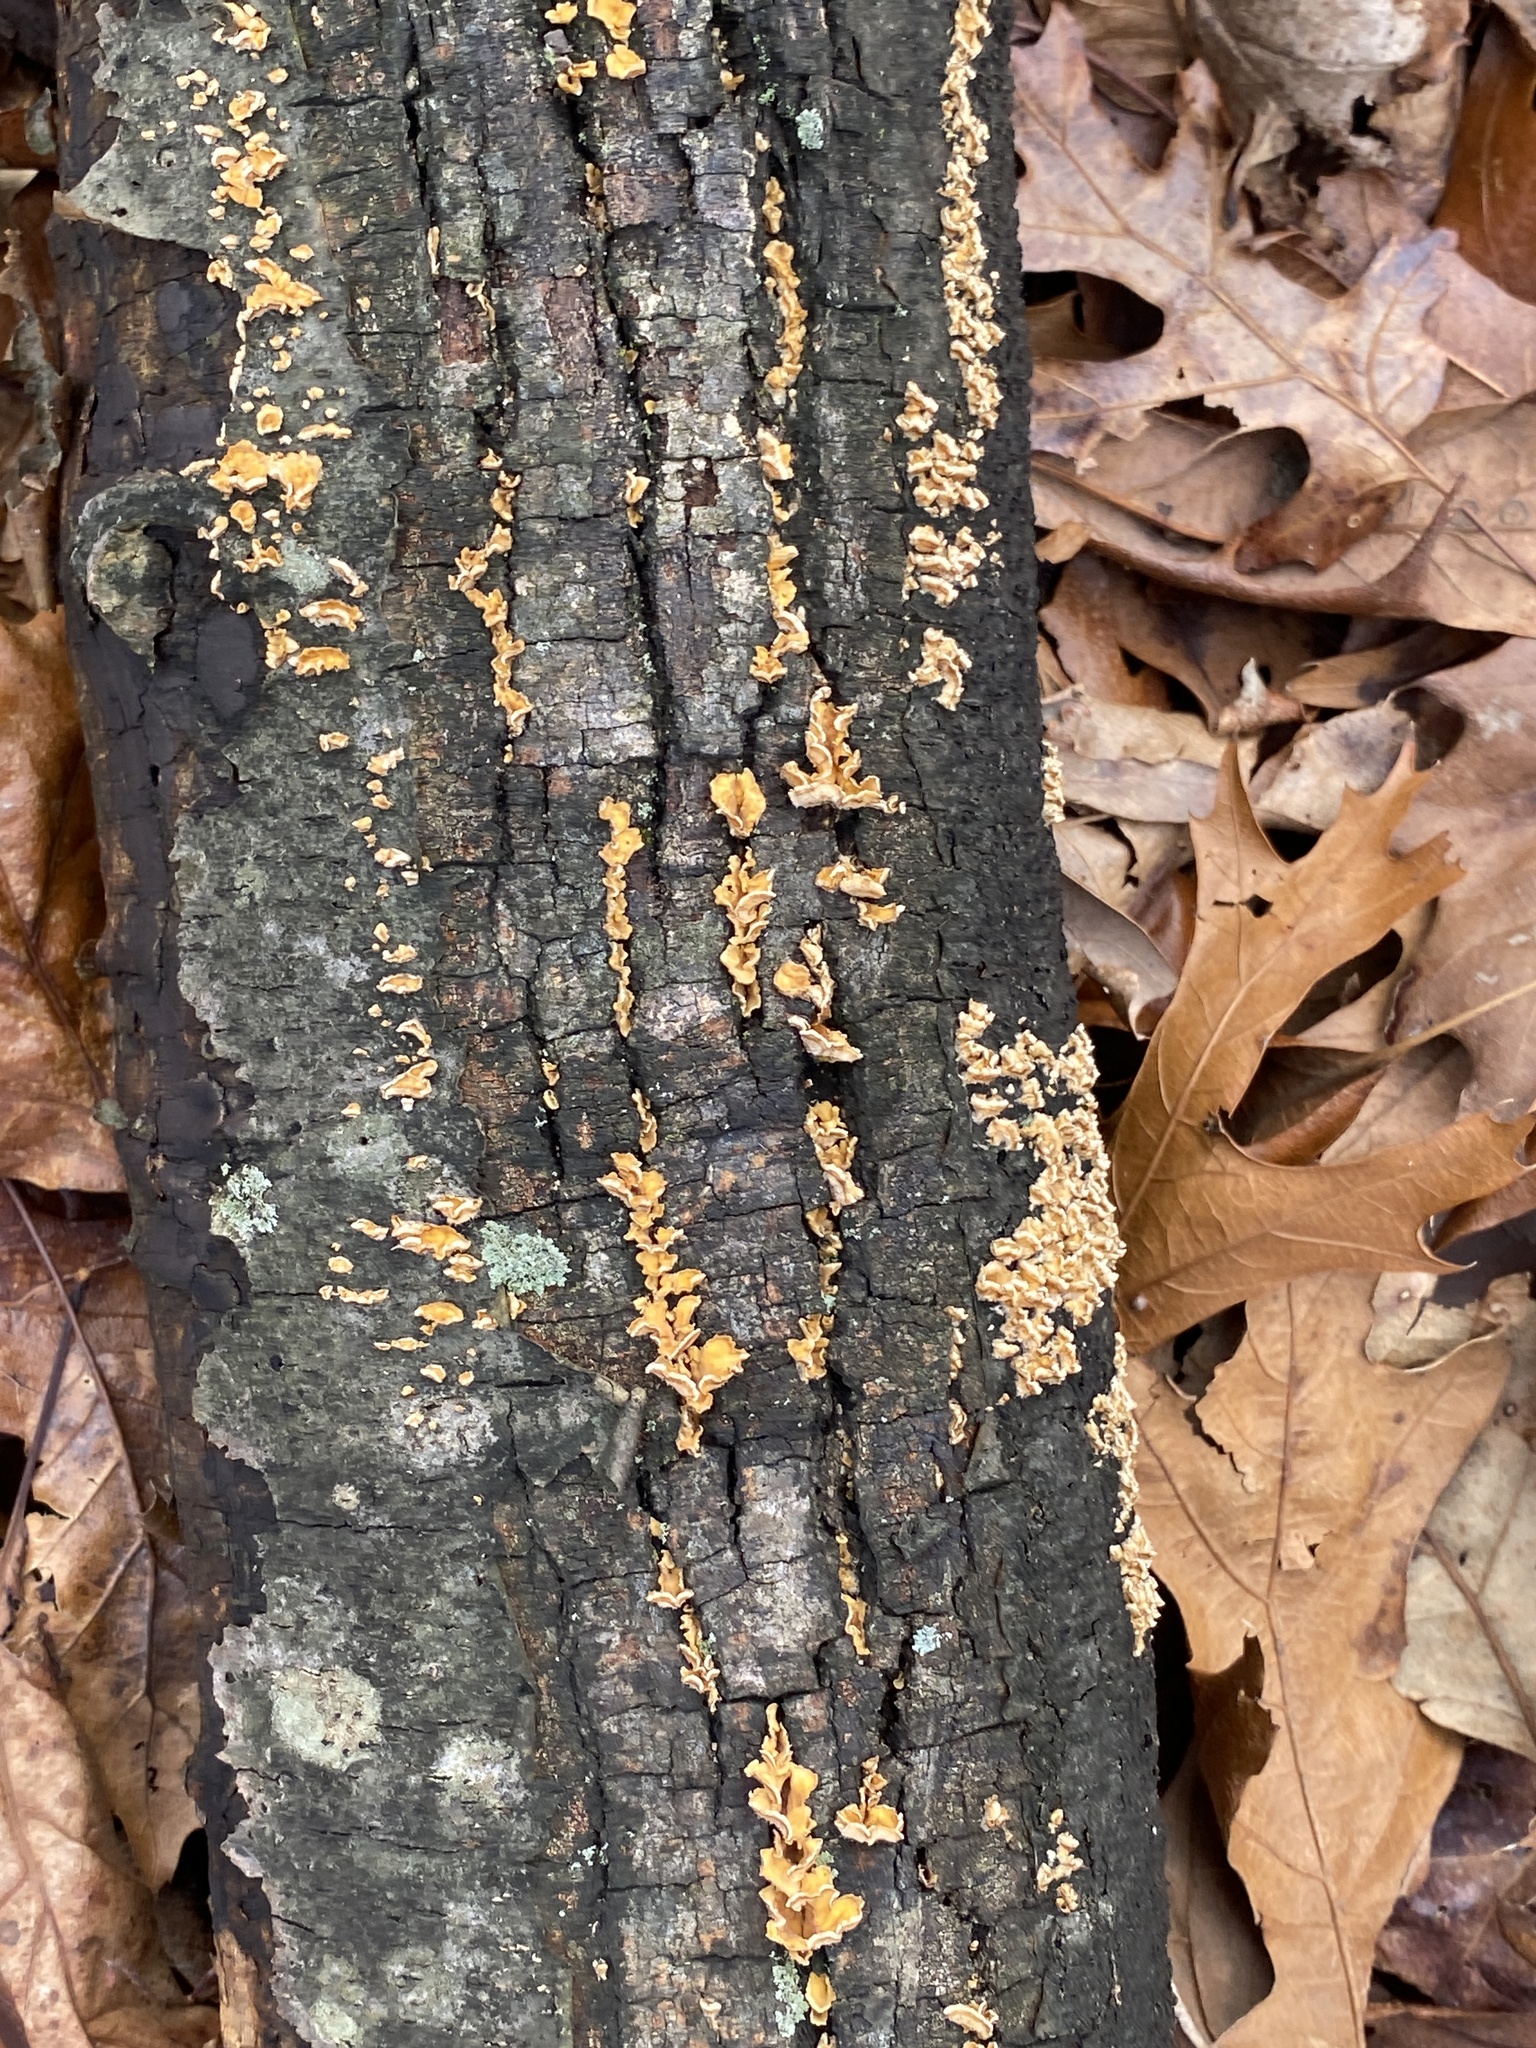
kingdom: Fungi
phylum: Basidiomycota
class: Agaricomycetes
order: Russulales
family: Stereaceae
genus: Stereum
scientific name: Stereum complicatum
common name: Crowded parchment
